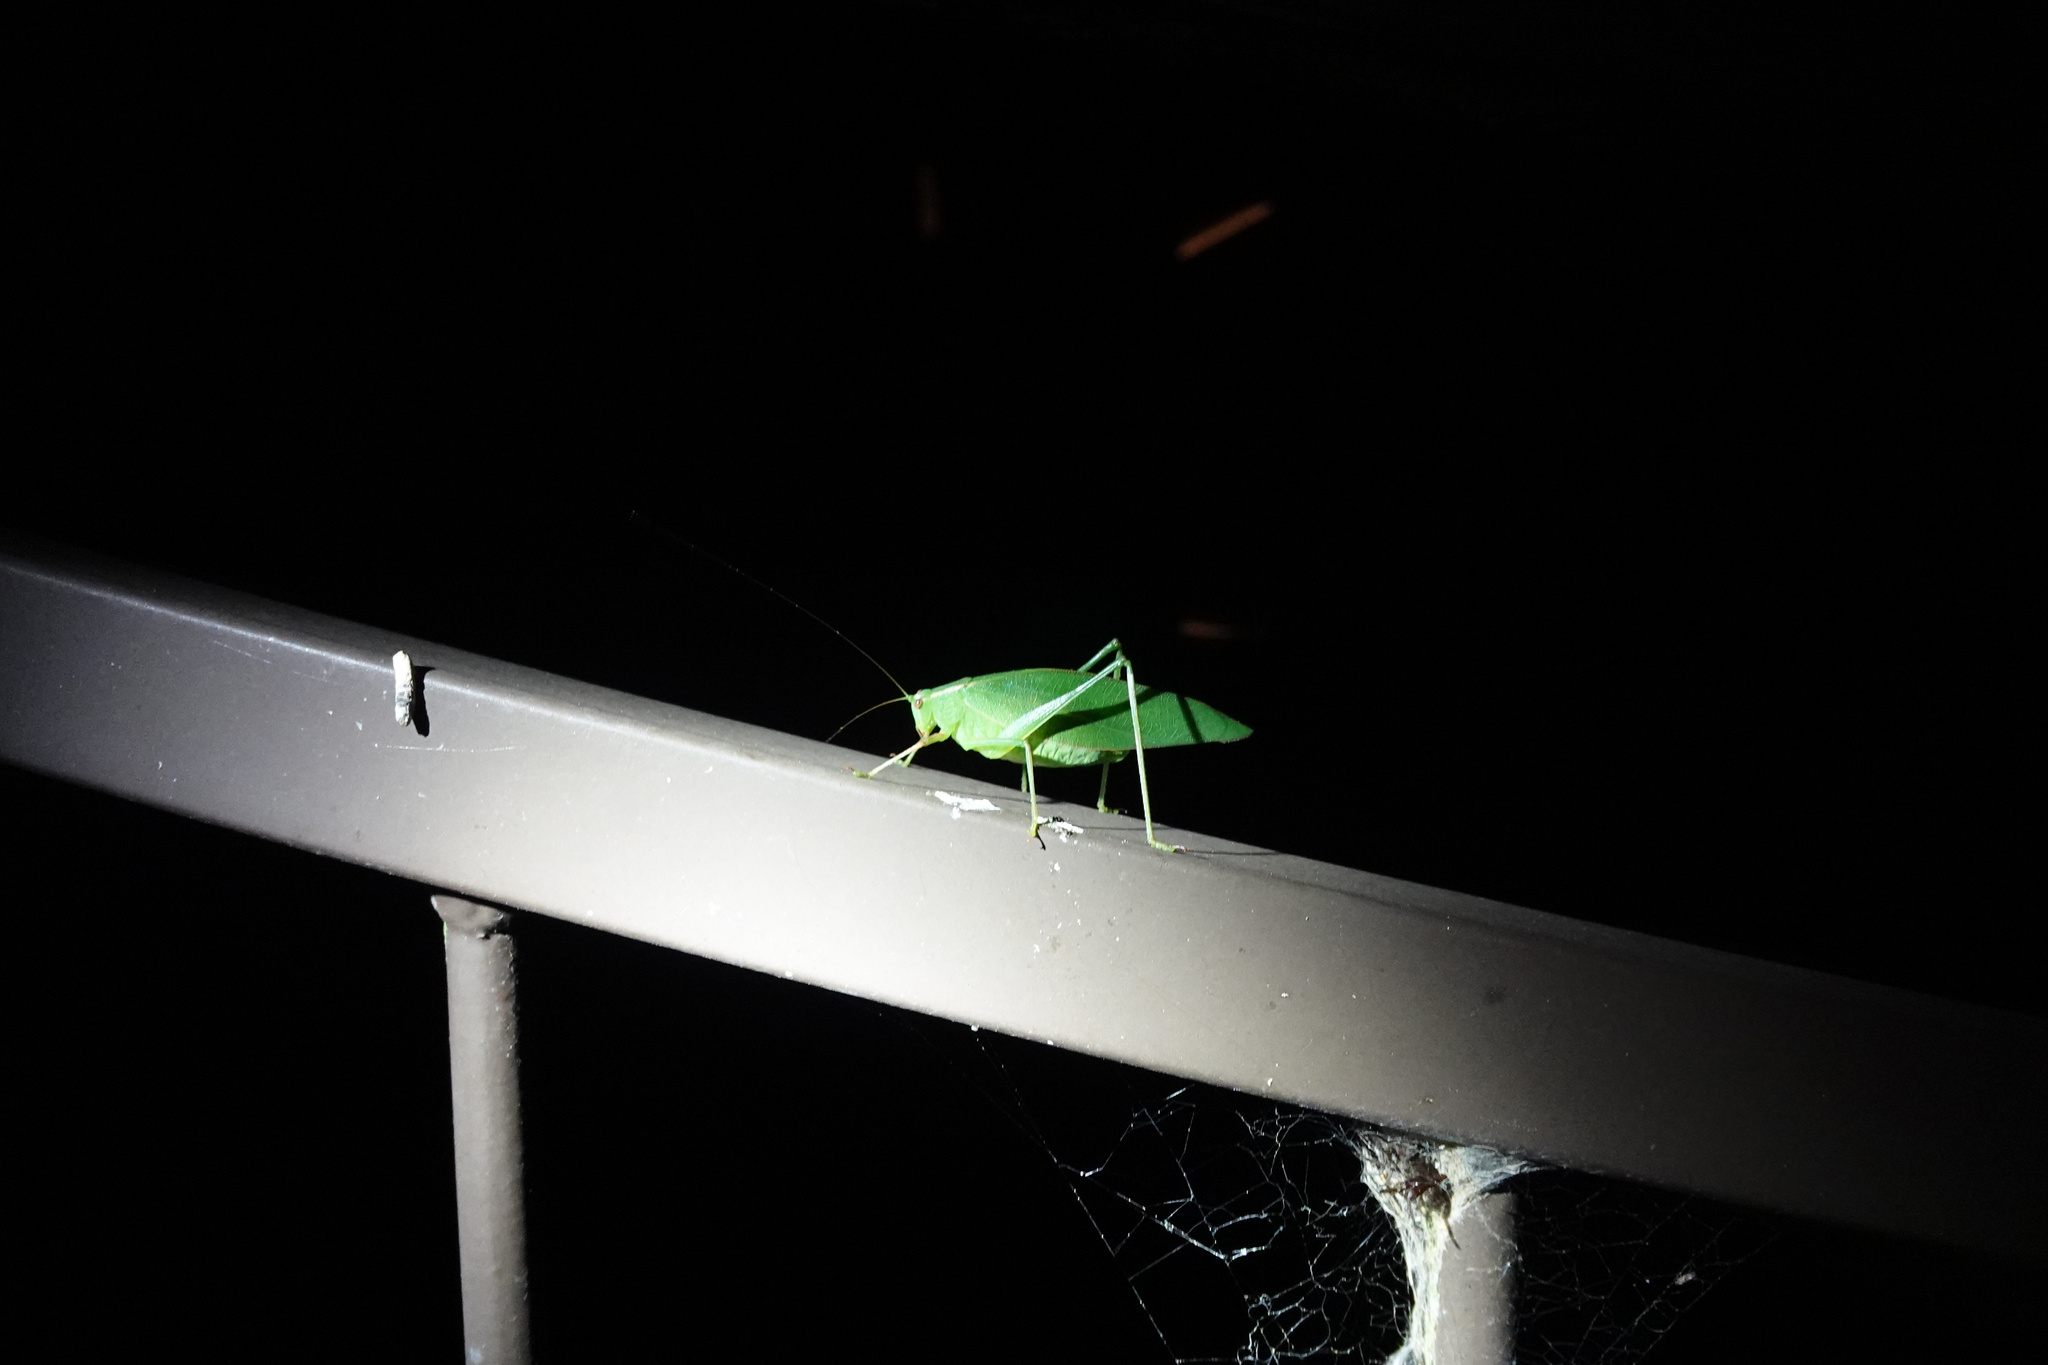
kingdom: Animalia
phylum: Arthropoda
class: Insecta
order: Orthoptera
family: Tettigoniidae
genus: Caedicia
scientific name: Caedicia simplex
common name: Common garden katydid
